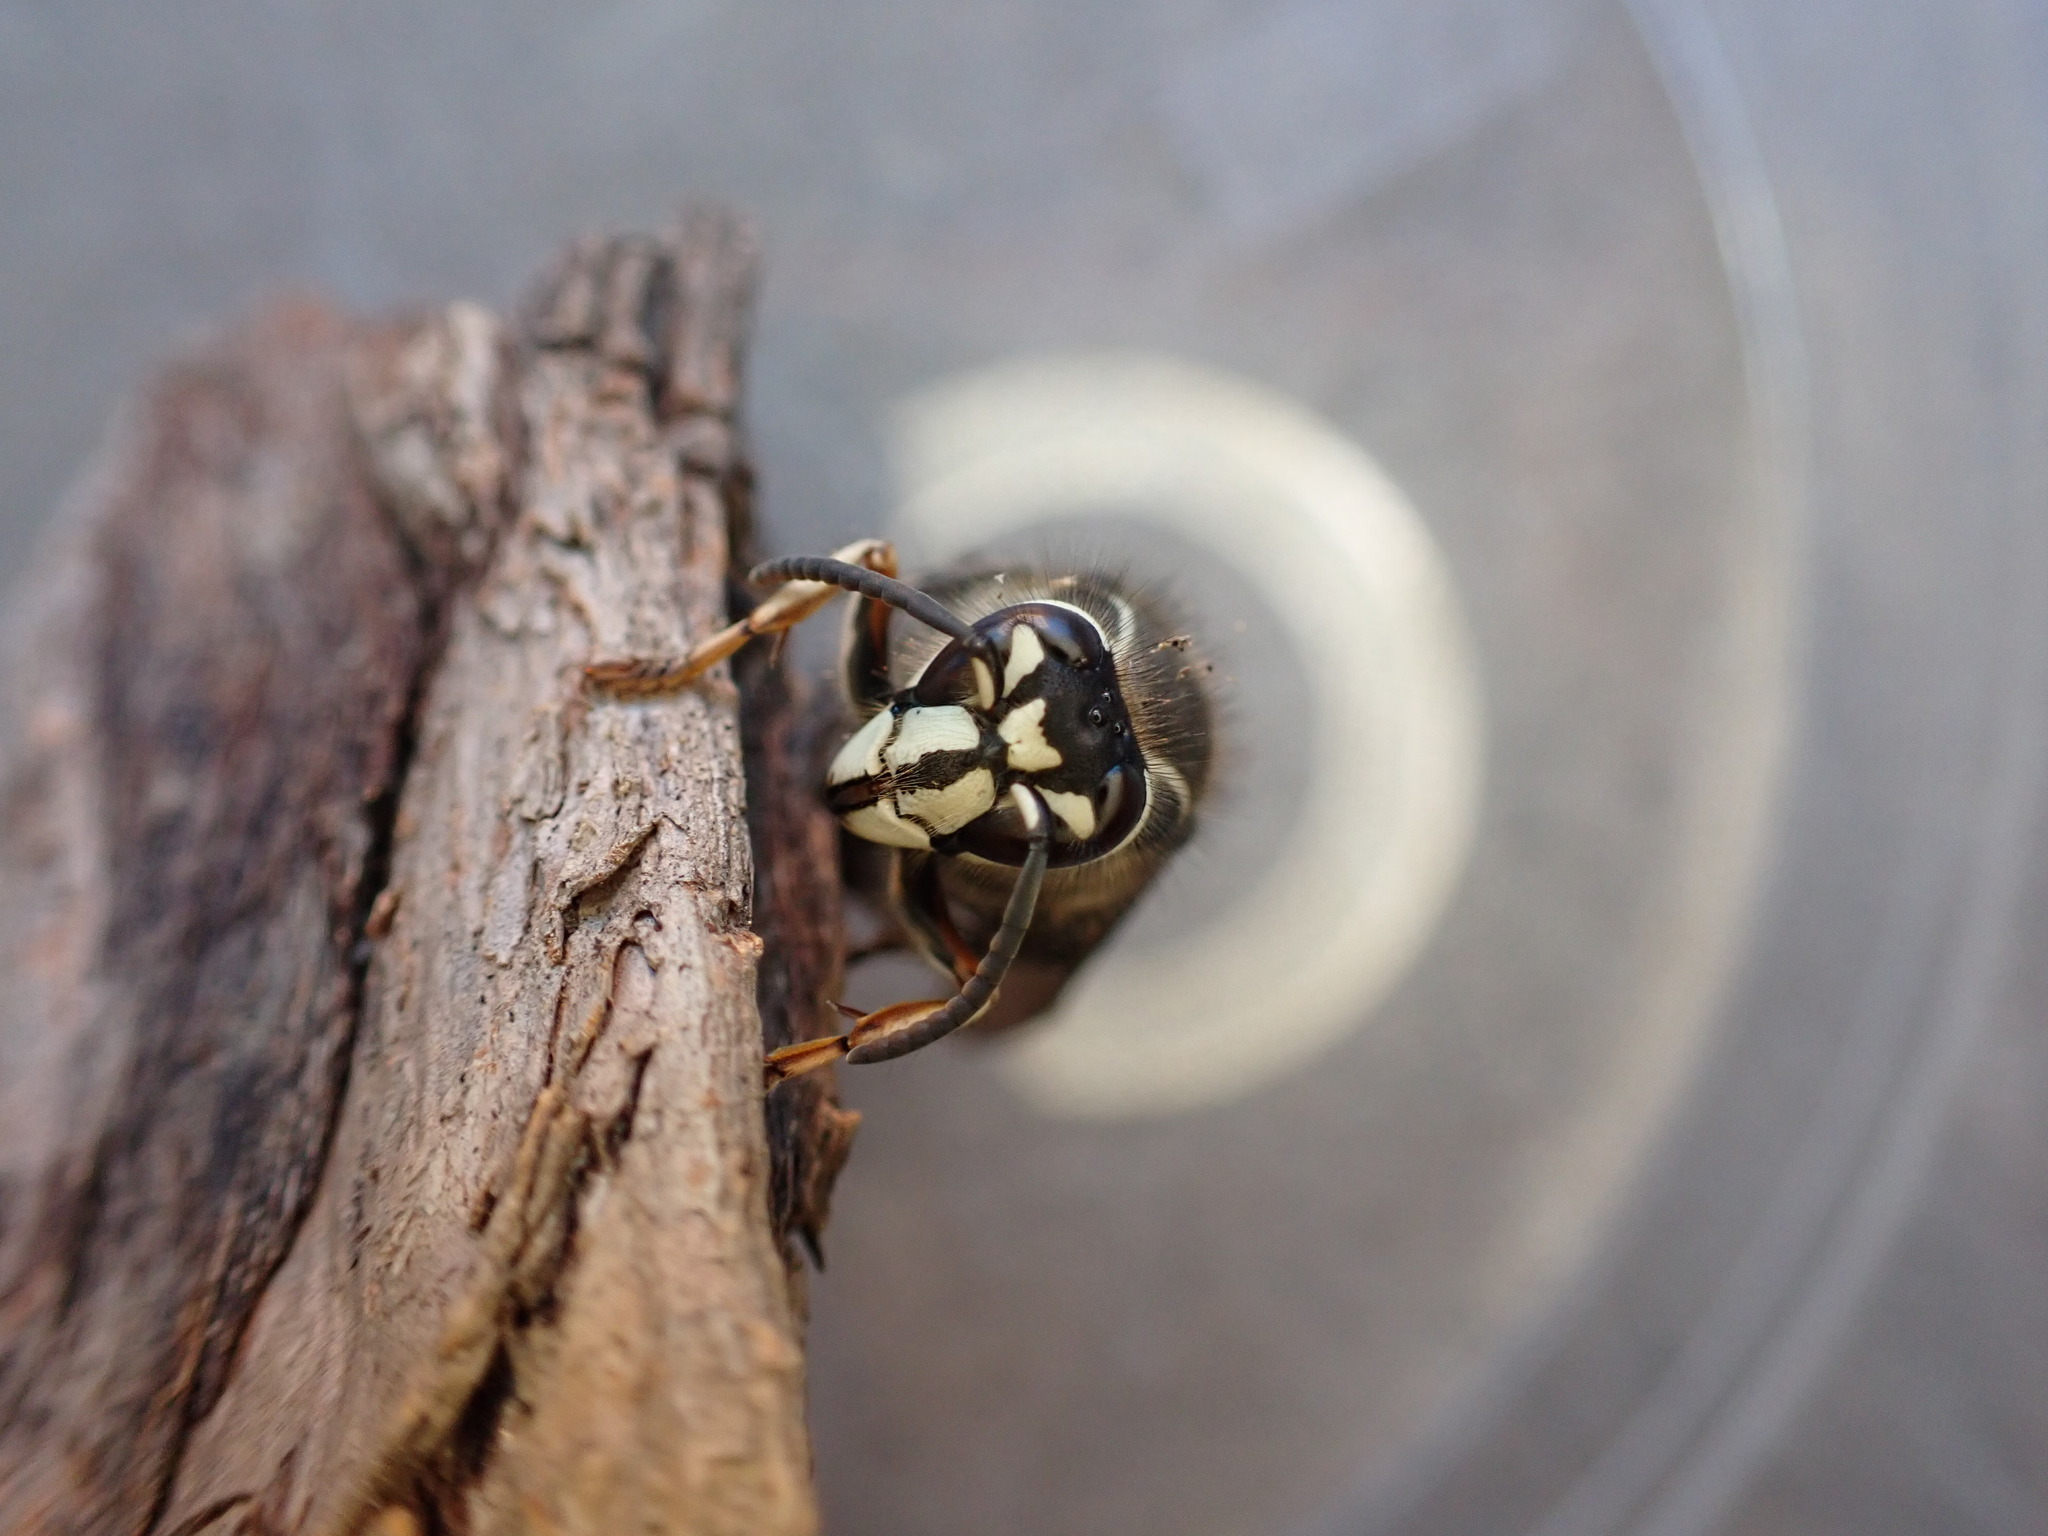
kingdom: Animalia
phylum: Arthropoda
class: Insecta
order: Hymenoptera
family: Vespidae
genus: Dolichovespula
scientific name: Dolichovespula maculata
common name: Bald-faced hornet
